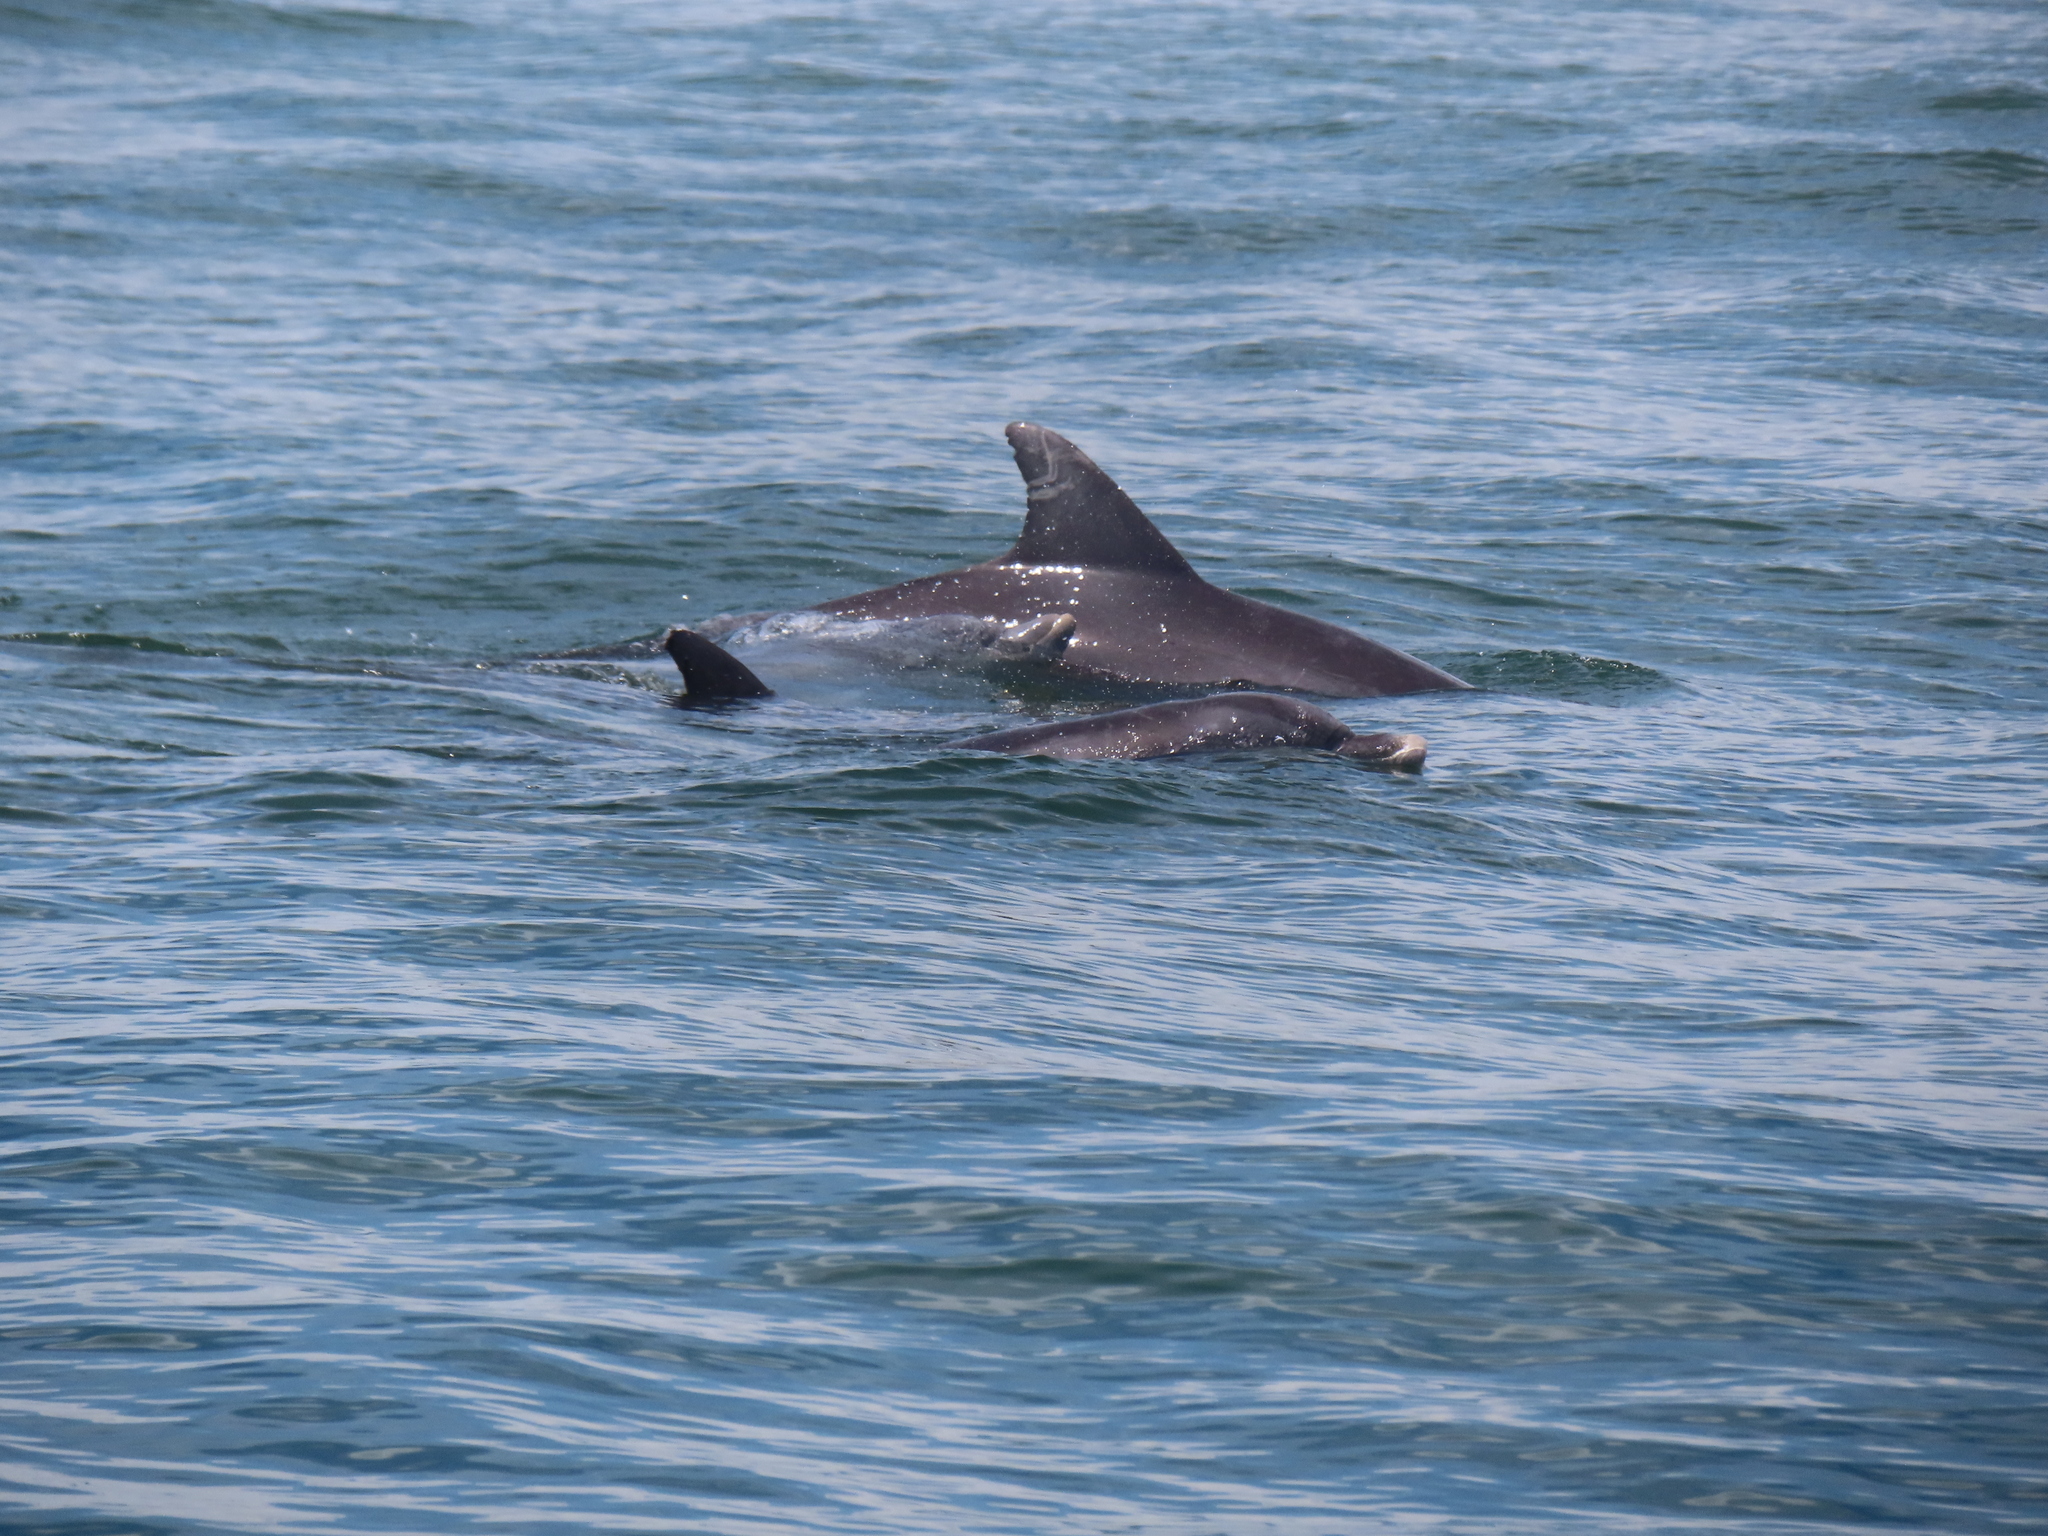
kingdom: Animalia
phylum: Chordata
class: Mammalia
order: Cetacea
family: Delphinidae
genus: Tursiops
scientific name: Tursiops truncatus
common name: Bottlenose dolphin
